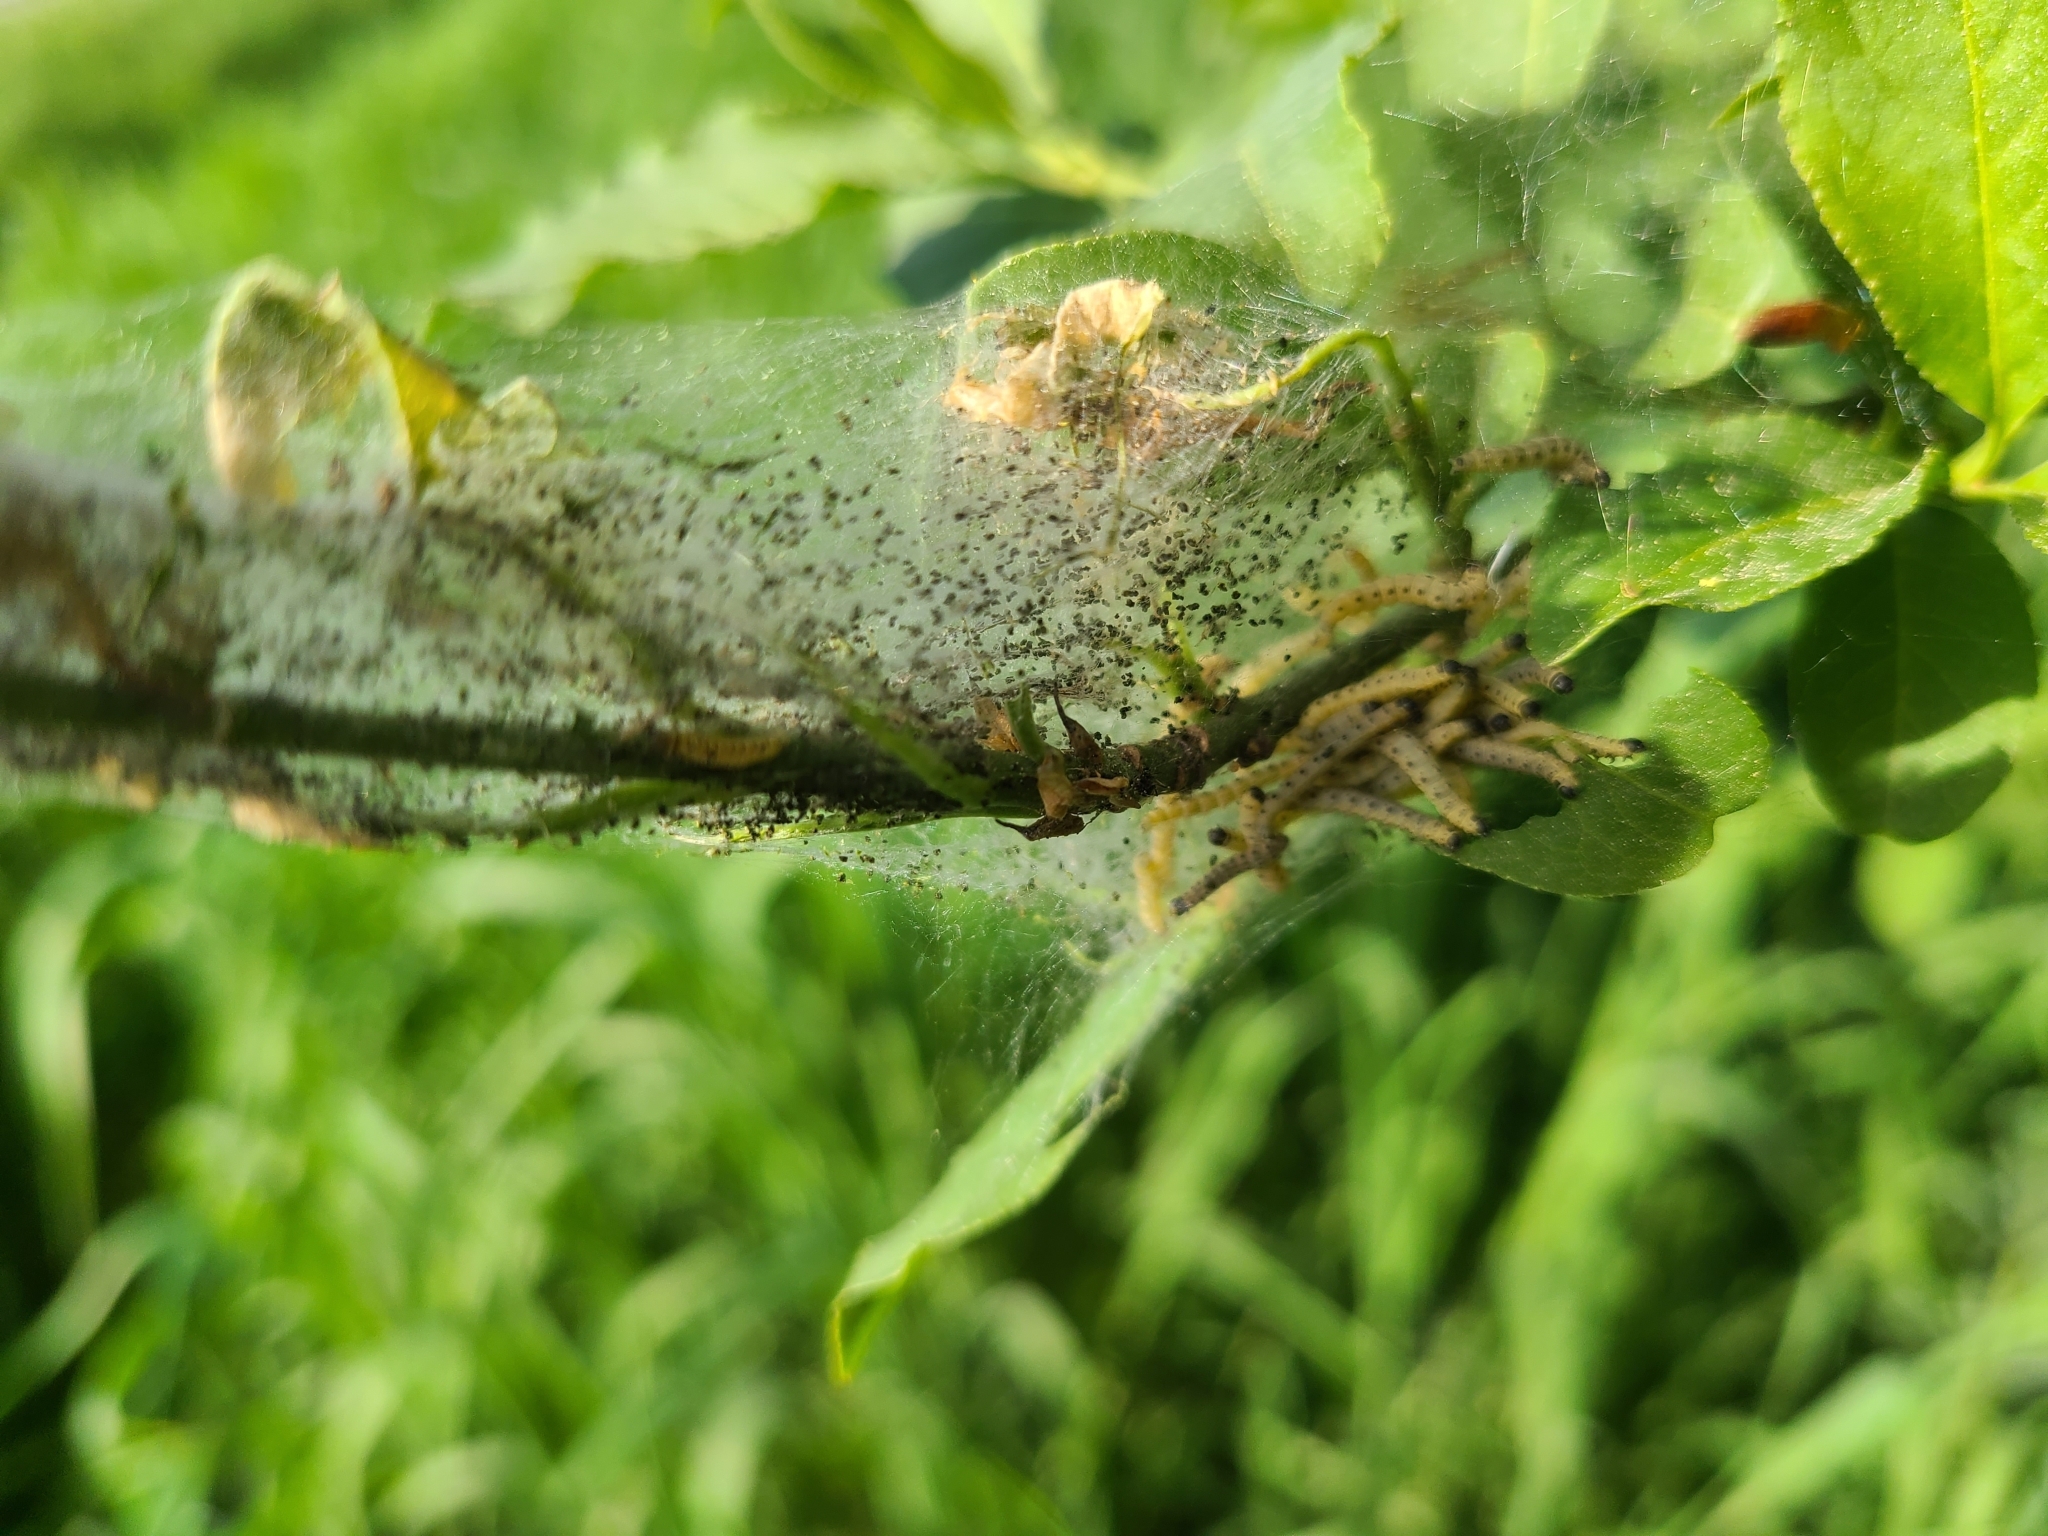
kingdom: Animalia
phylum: Arthropoda
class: Insecta
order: Lepidoptera
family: Yponomeutidae
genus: Yponomeuta
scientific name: Yponomeuta cagnagellus
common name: Spindle ermine
